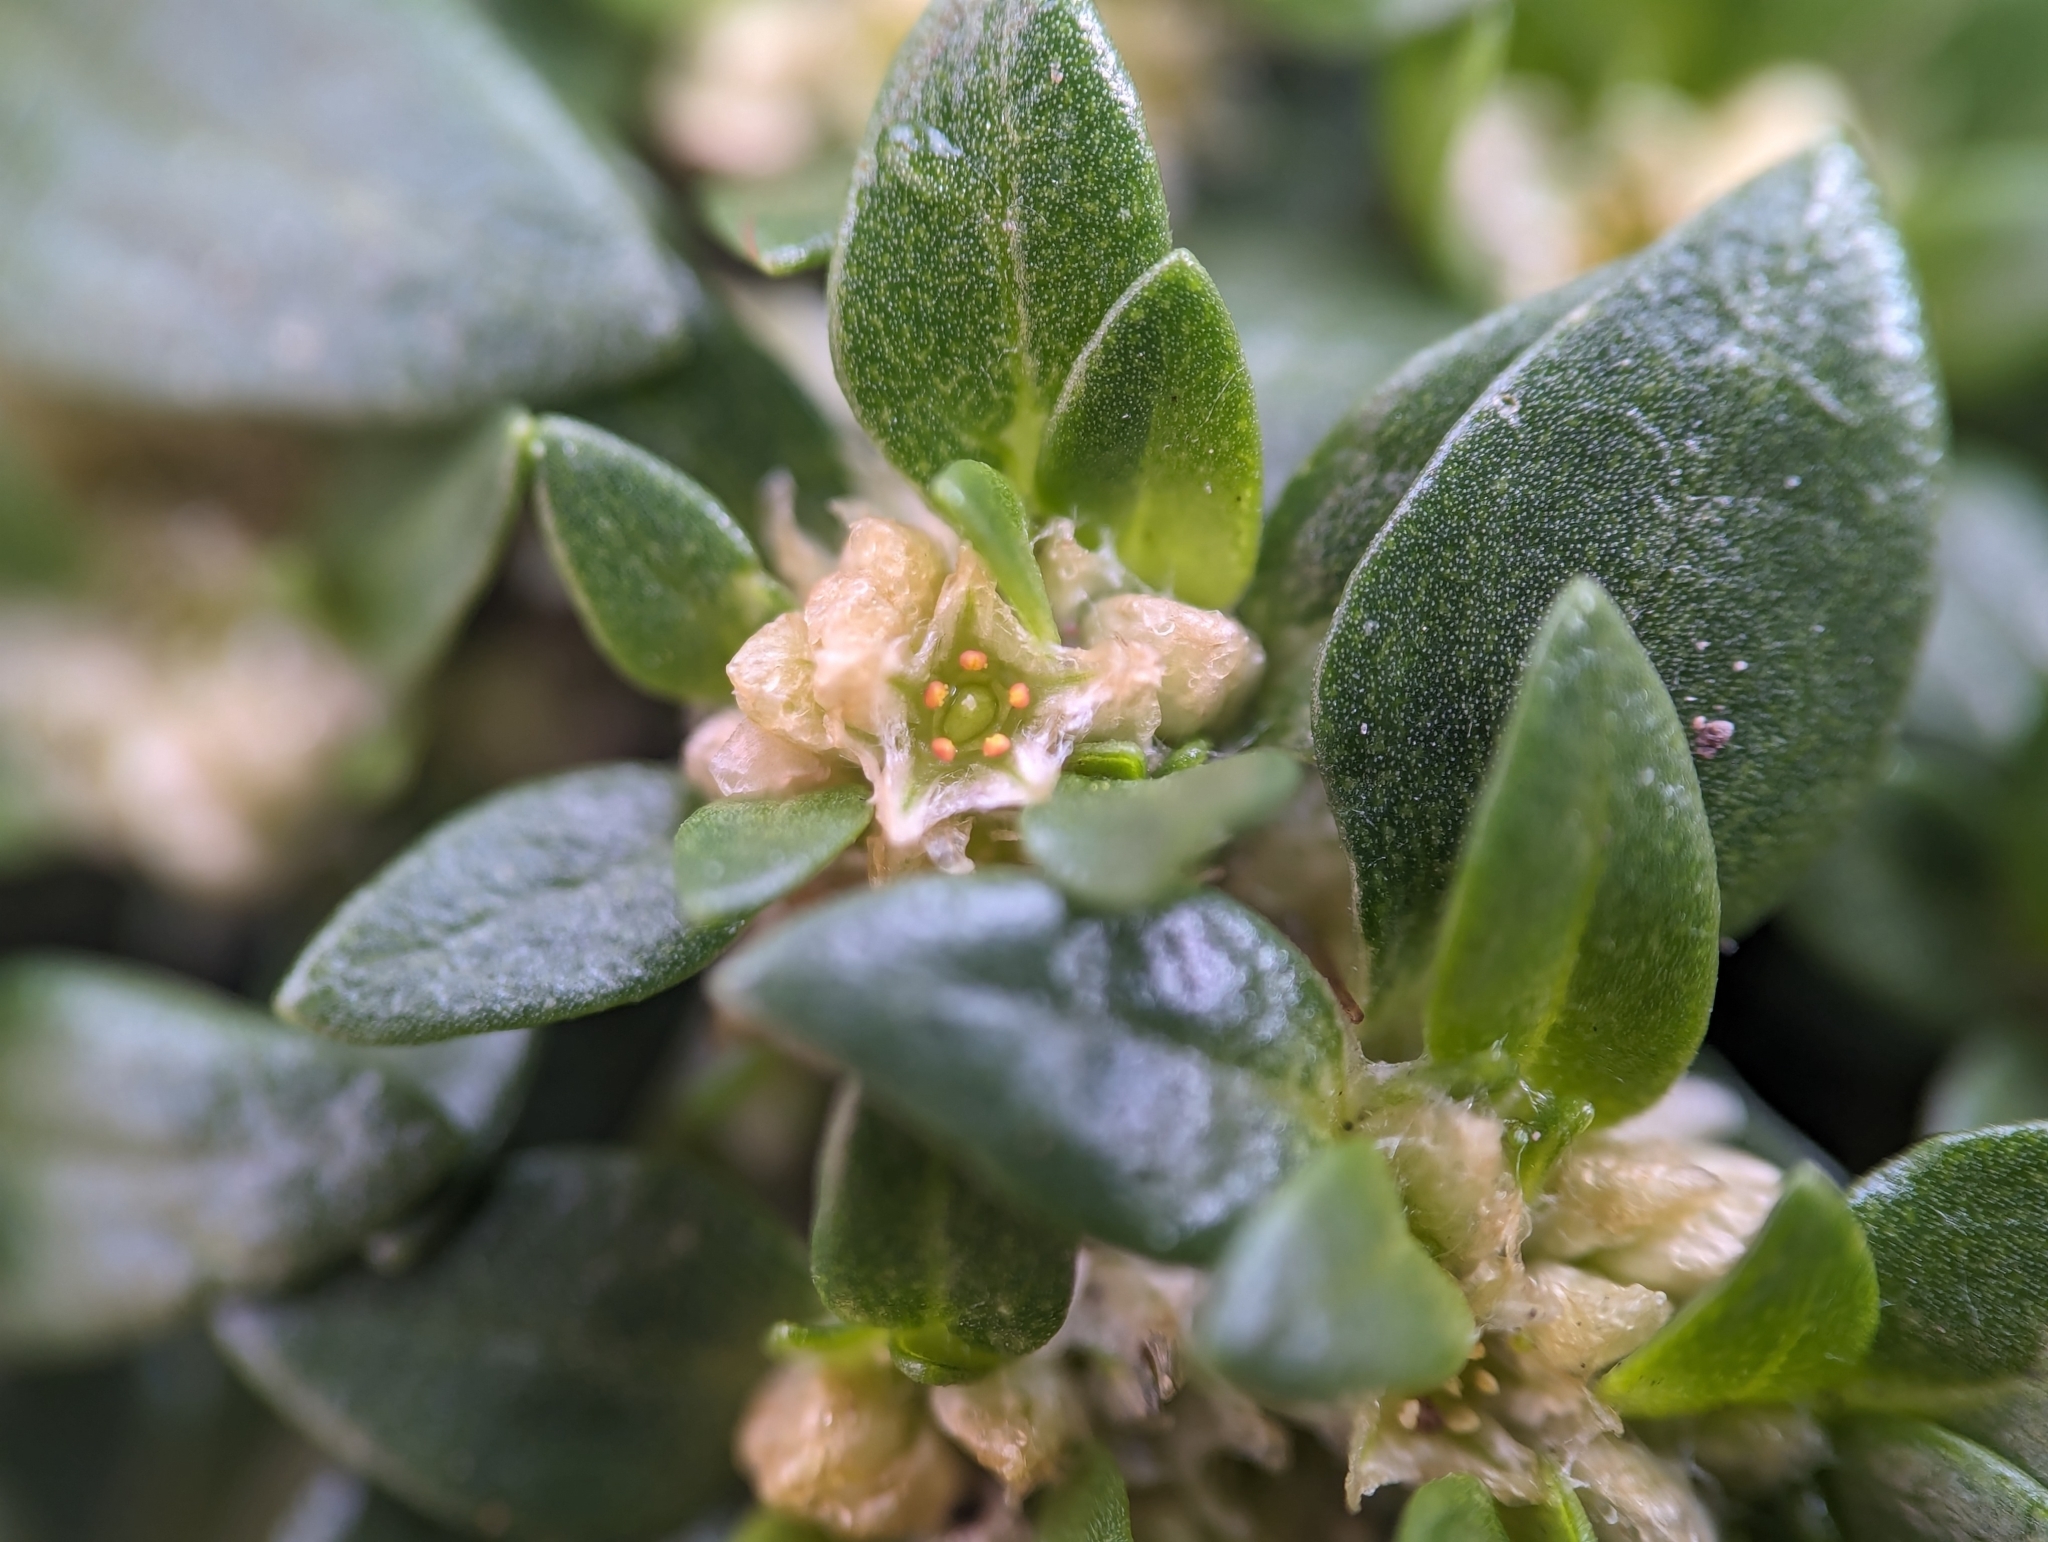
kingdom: Plantae
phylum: Tracheophyta
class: Magnoliopsida
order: Caryophyllales
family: Amaranthaceae
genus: Guilleminea
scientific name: Guilleminea densa
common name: Small matweed
